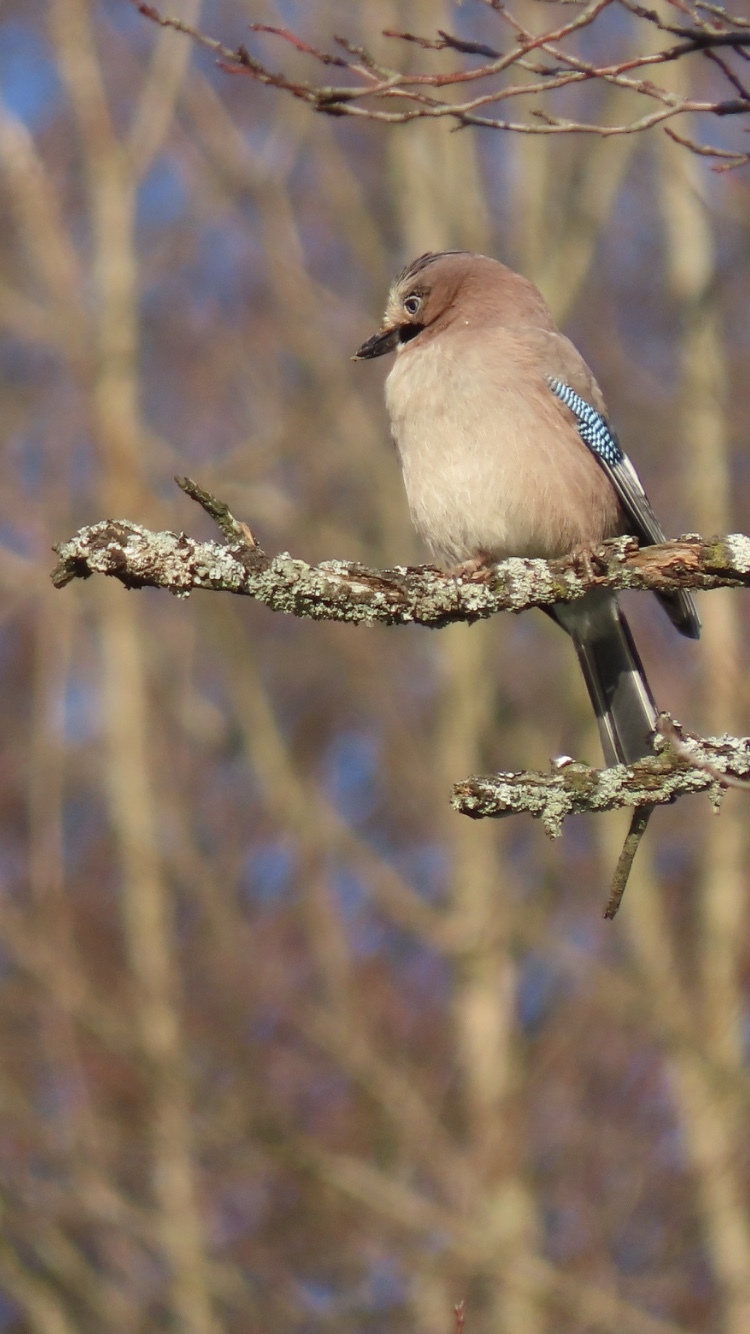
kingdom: Animalia
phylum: Chordata
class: Aves
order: Passeriformes
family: Corvidae
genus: Garrulus
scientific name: Garrulus glandarius
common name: Eurasian jay
